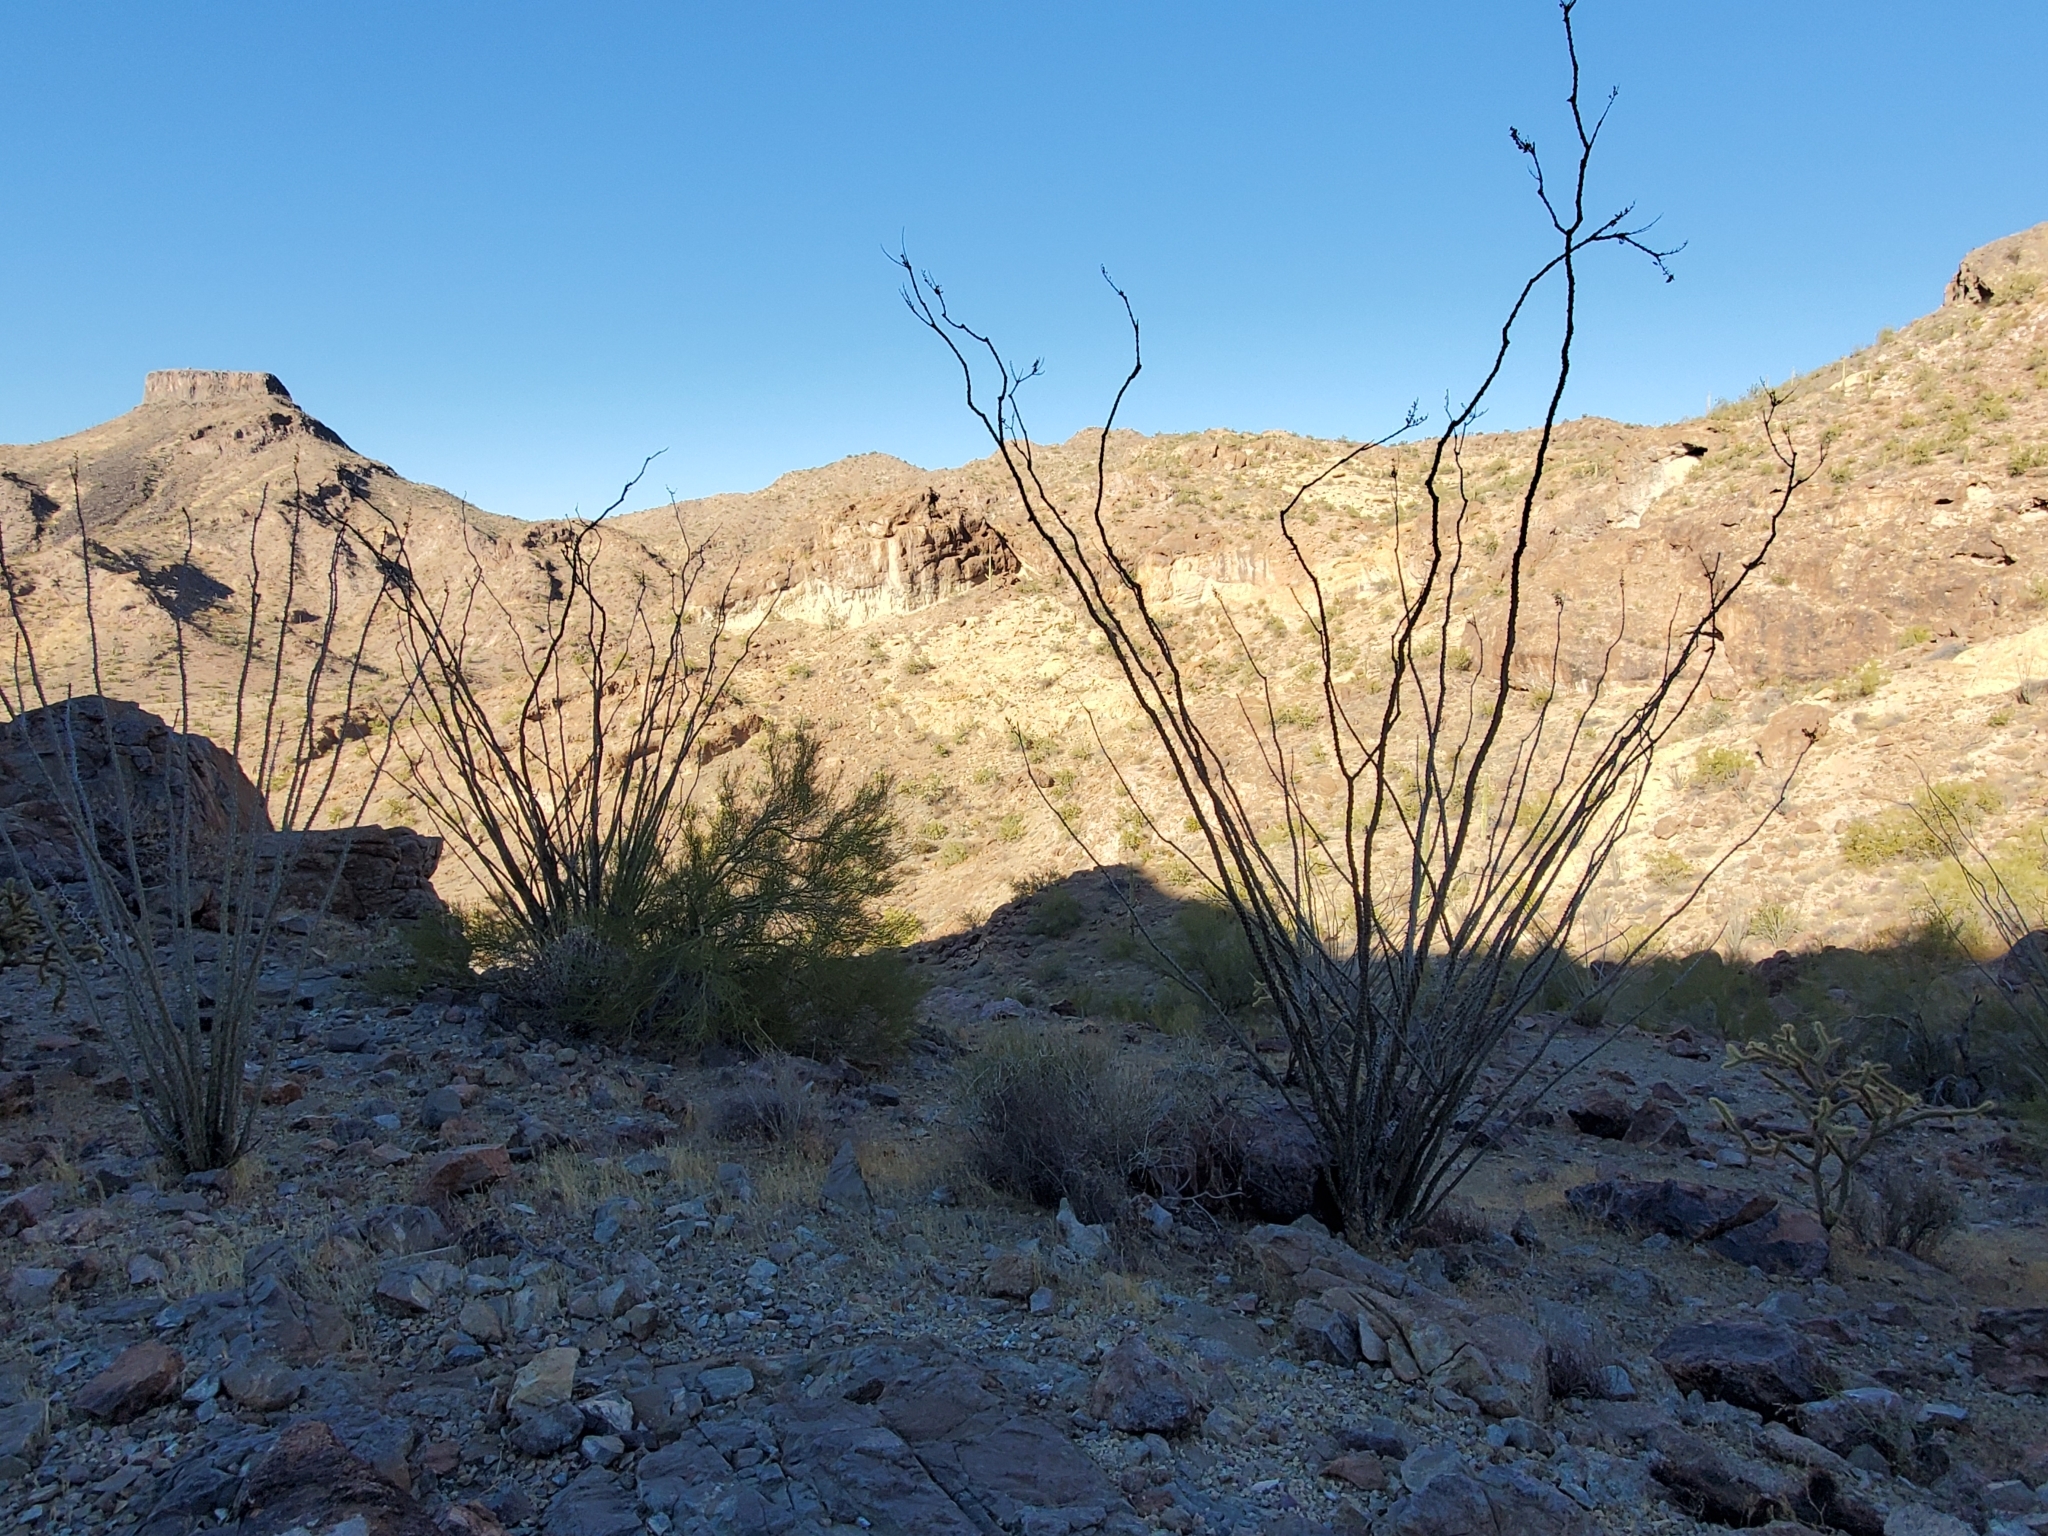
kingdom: Plantae
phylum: Tracheophyta
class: Magnoliopsida
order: Ericales
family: Fouquieriaceae
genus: Fouquieria
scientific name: Fouquieria splendens
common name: Vine-cactus
